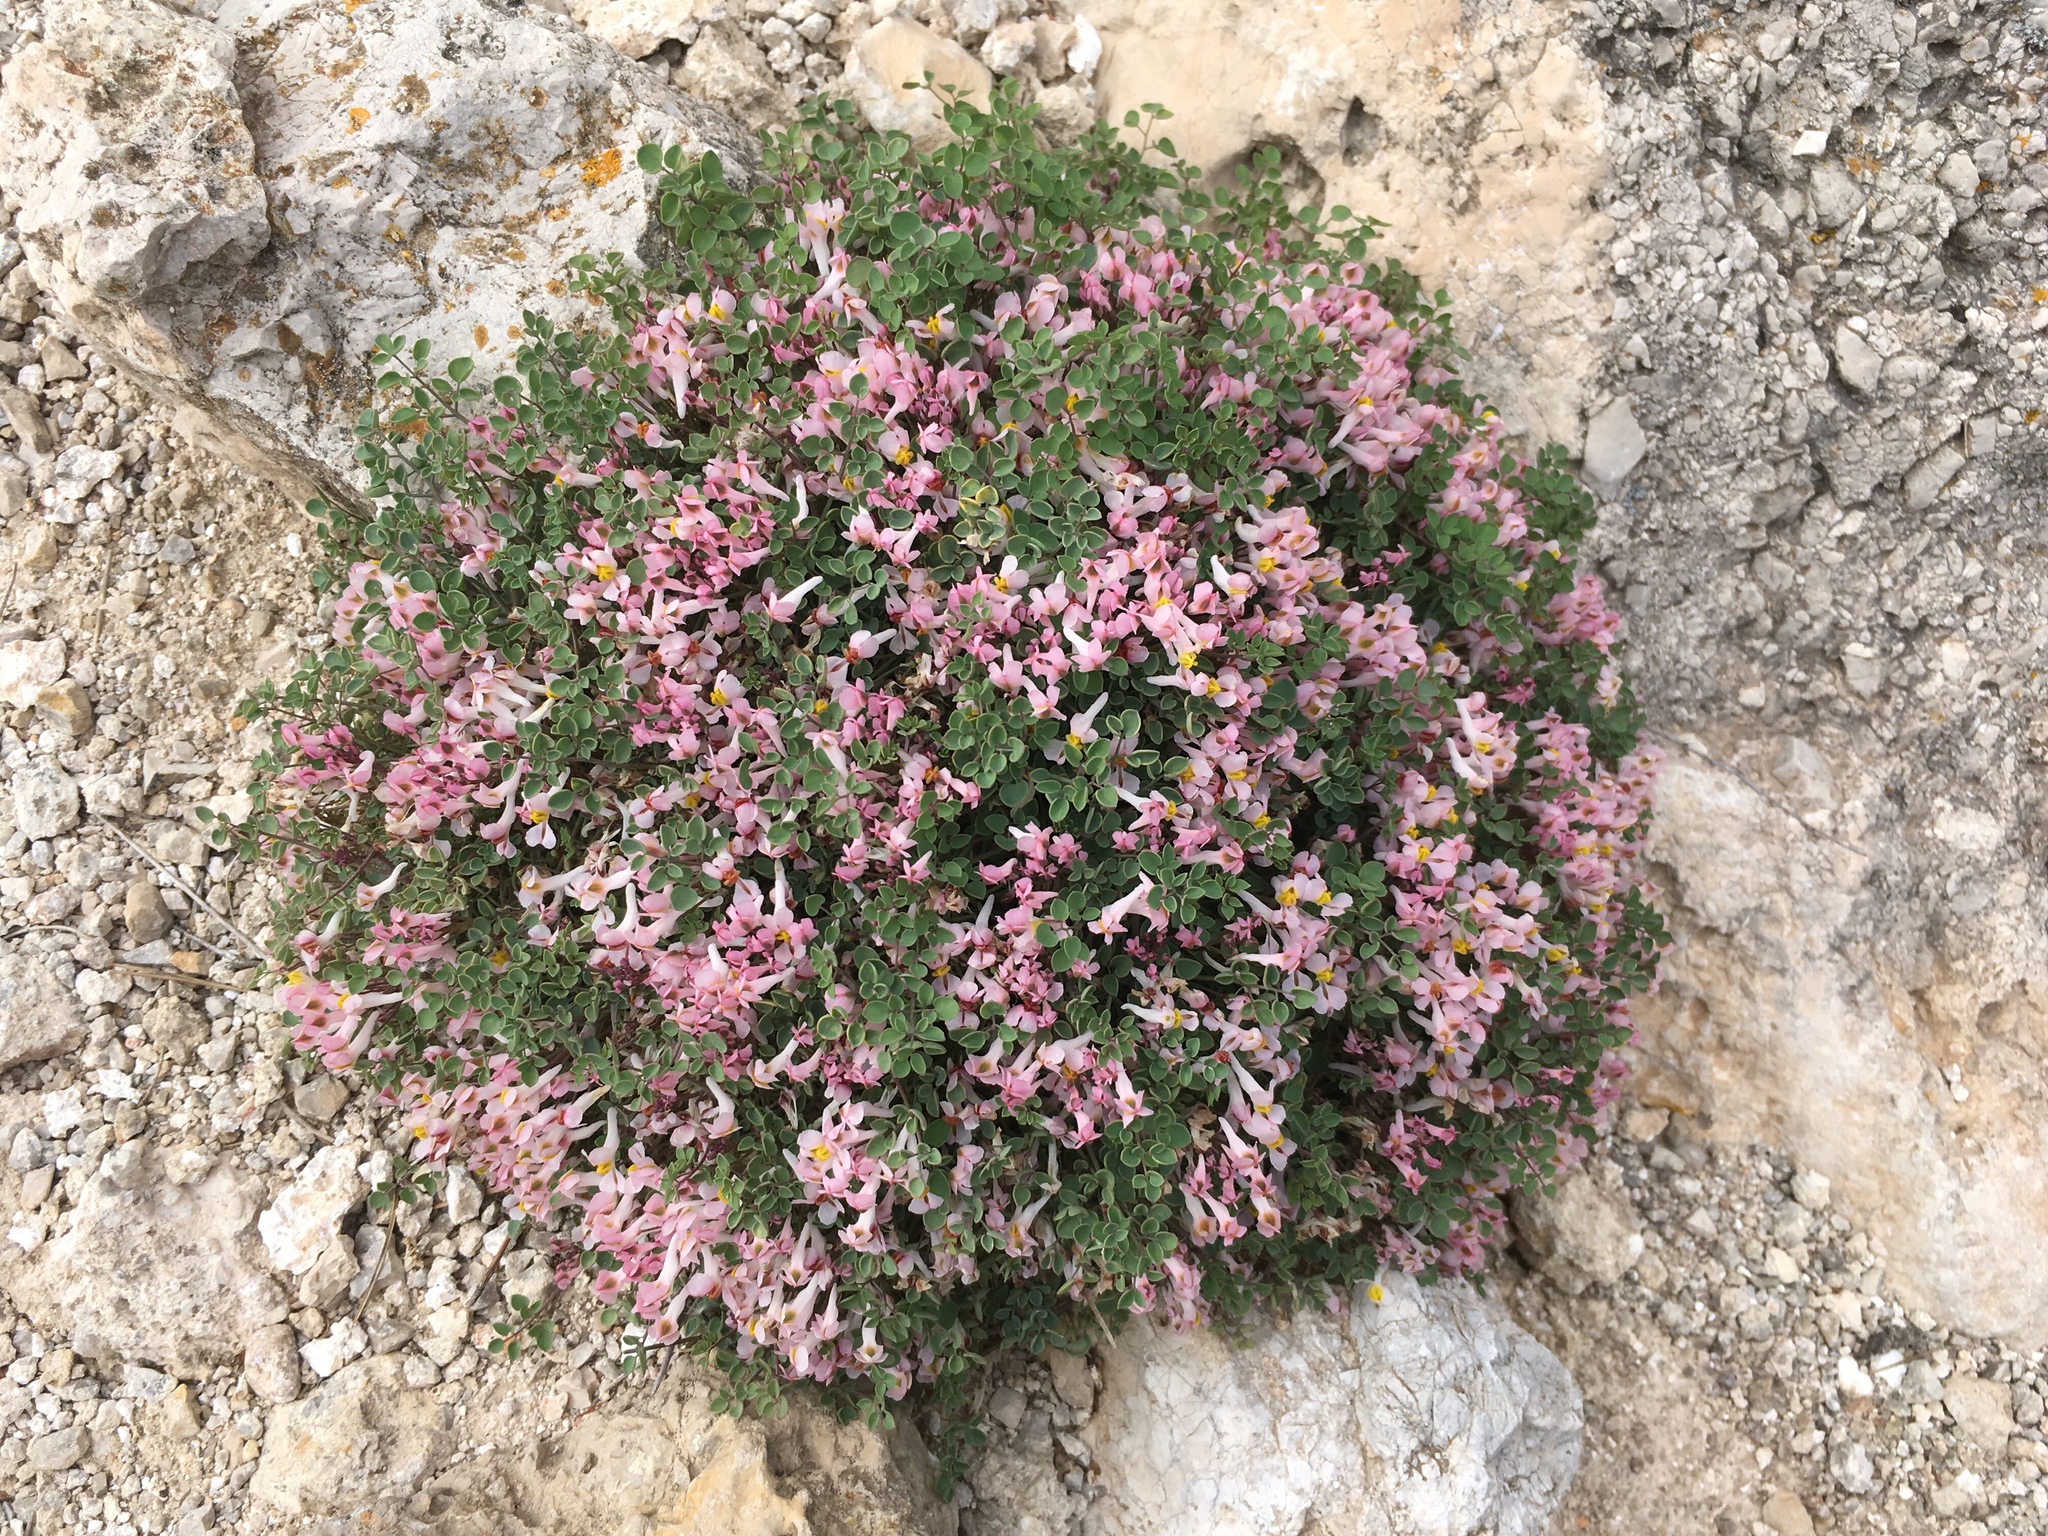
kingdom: Plantae
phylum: Tracheophyta
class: Magnoliopsida
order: Ranunculales
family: Papaveraceae
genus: Sarcocapnos
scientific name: Sarcocapnos enneaphylla
